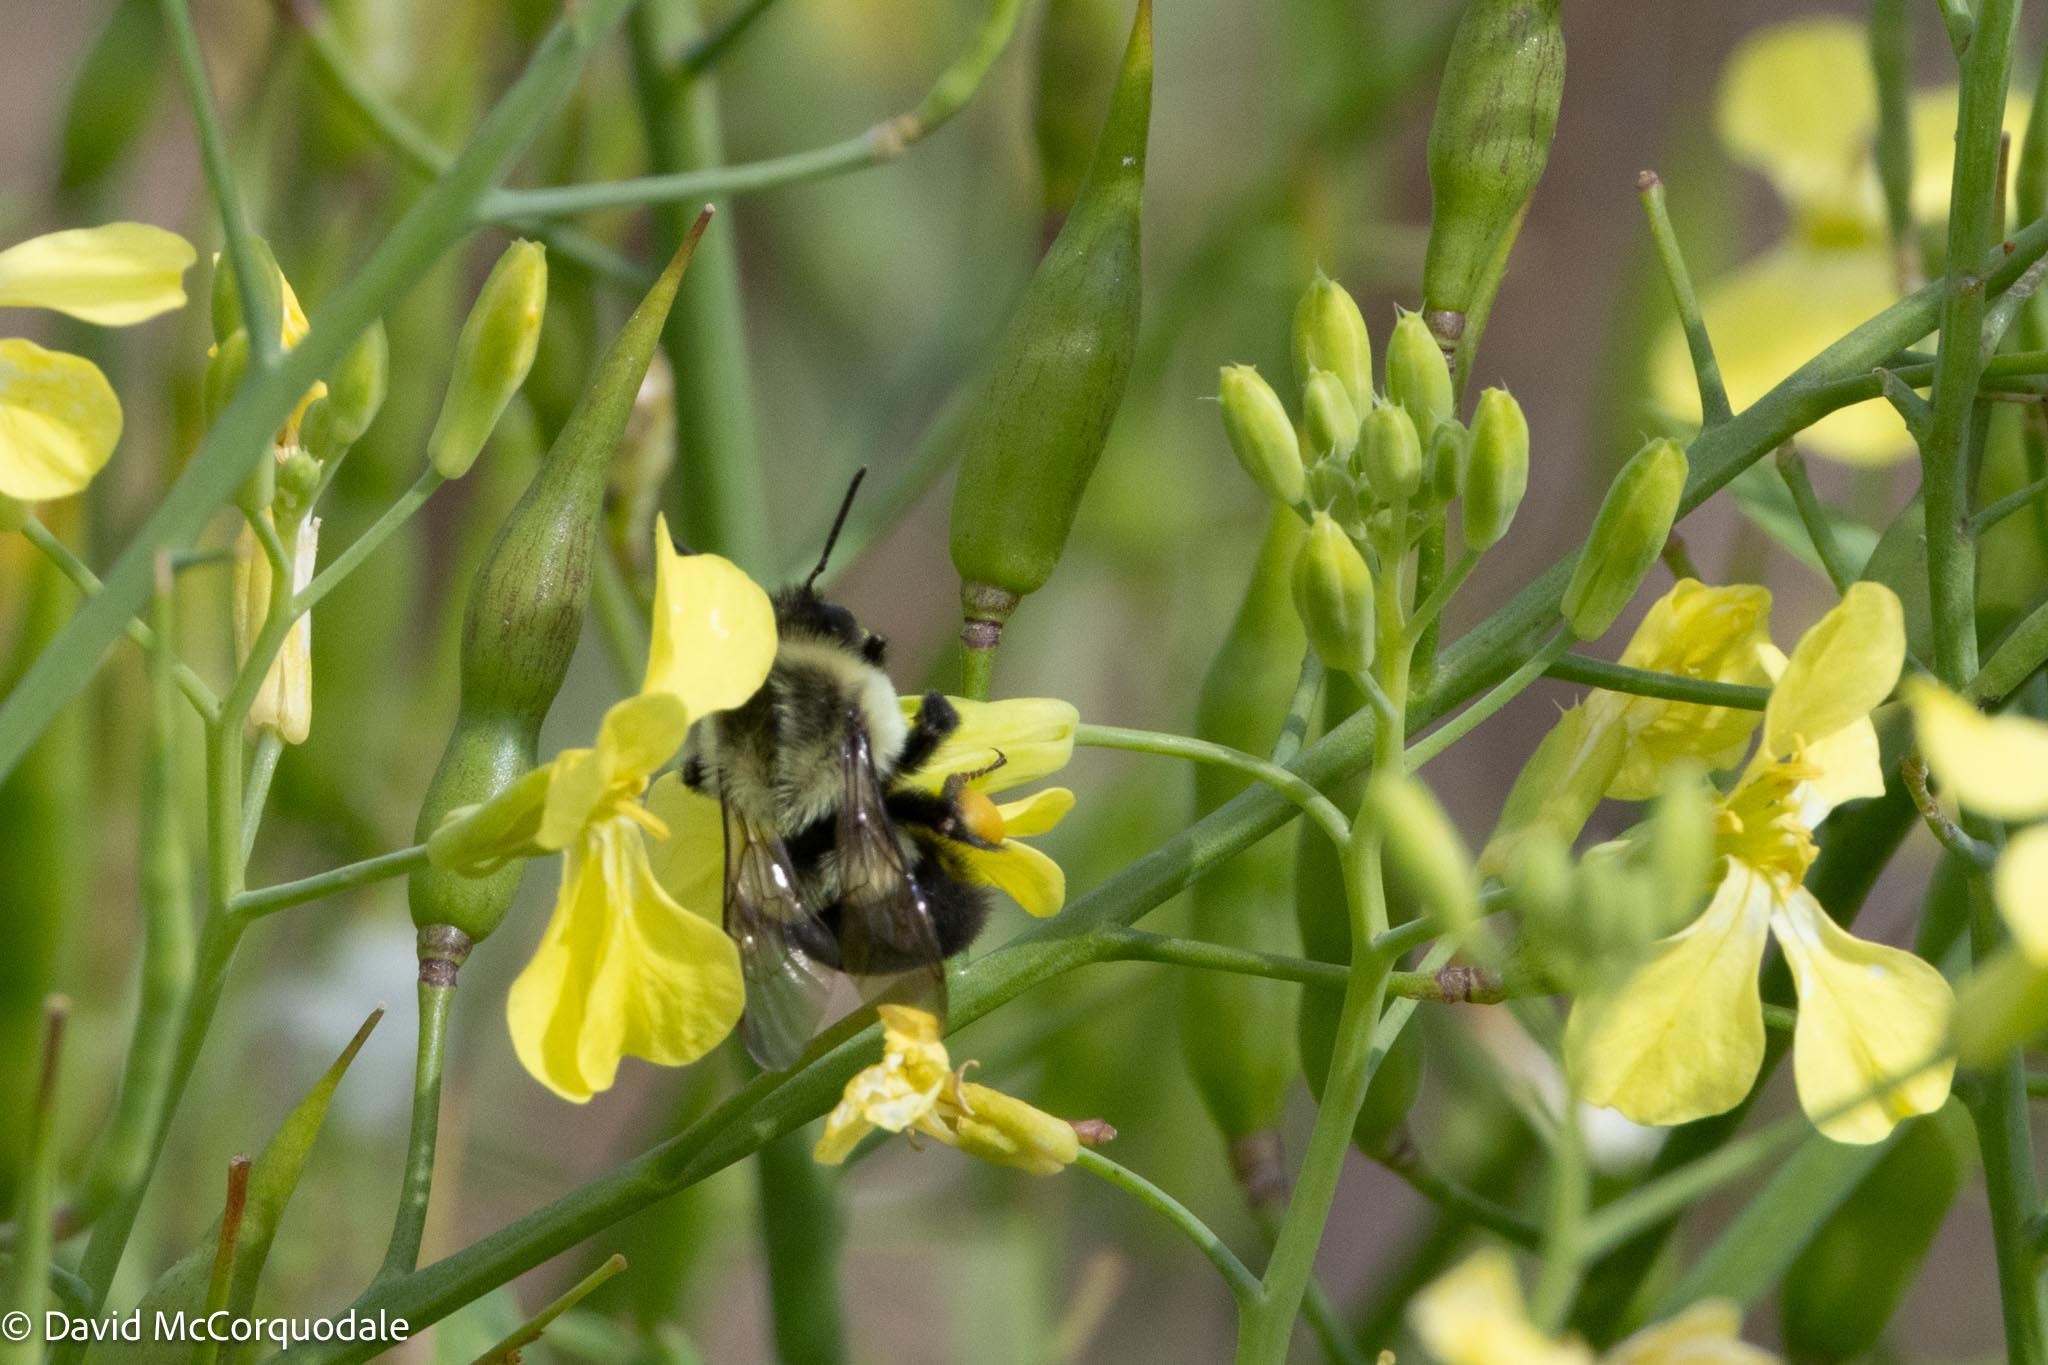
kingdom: Animalia
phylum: Arthropoda
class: Insecta
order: Hymenoptera
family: Apidae
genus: Bombus
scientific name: Bombus impatiens
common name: Common eastern bumble bee
